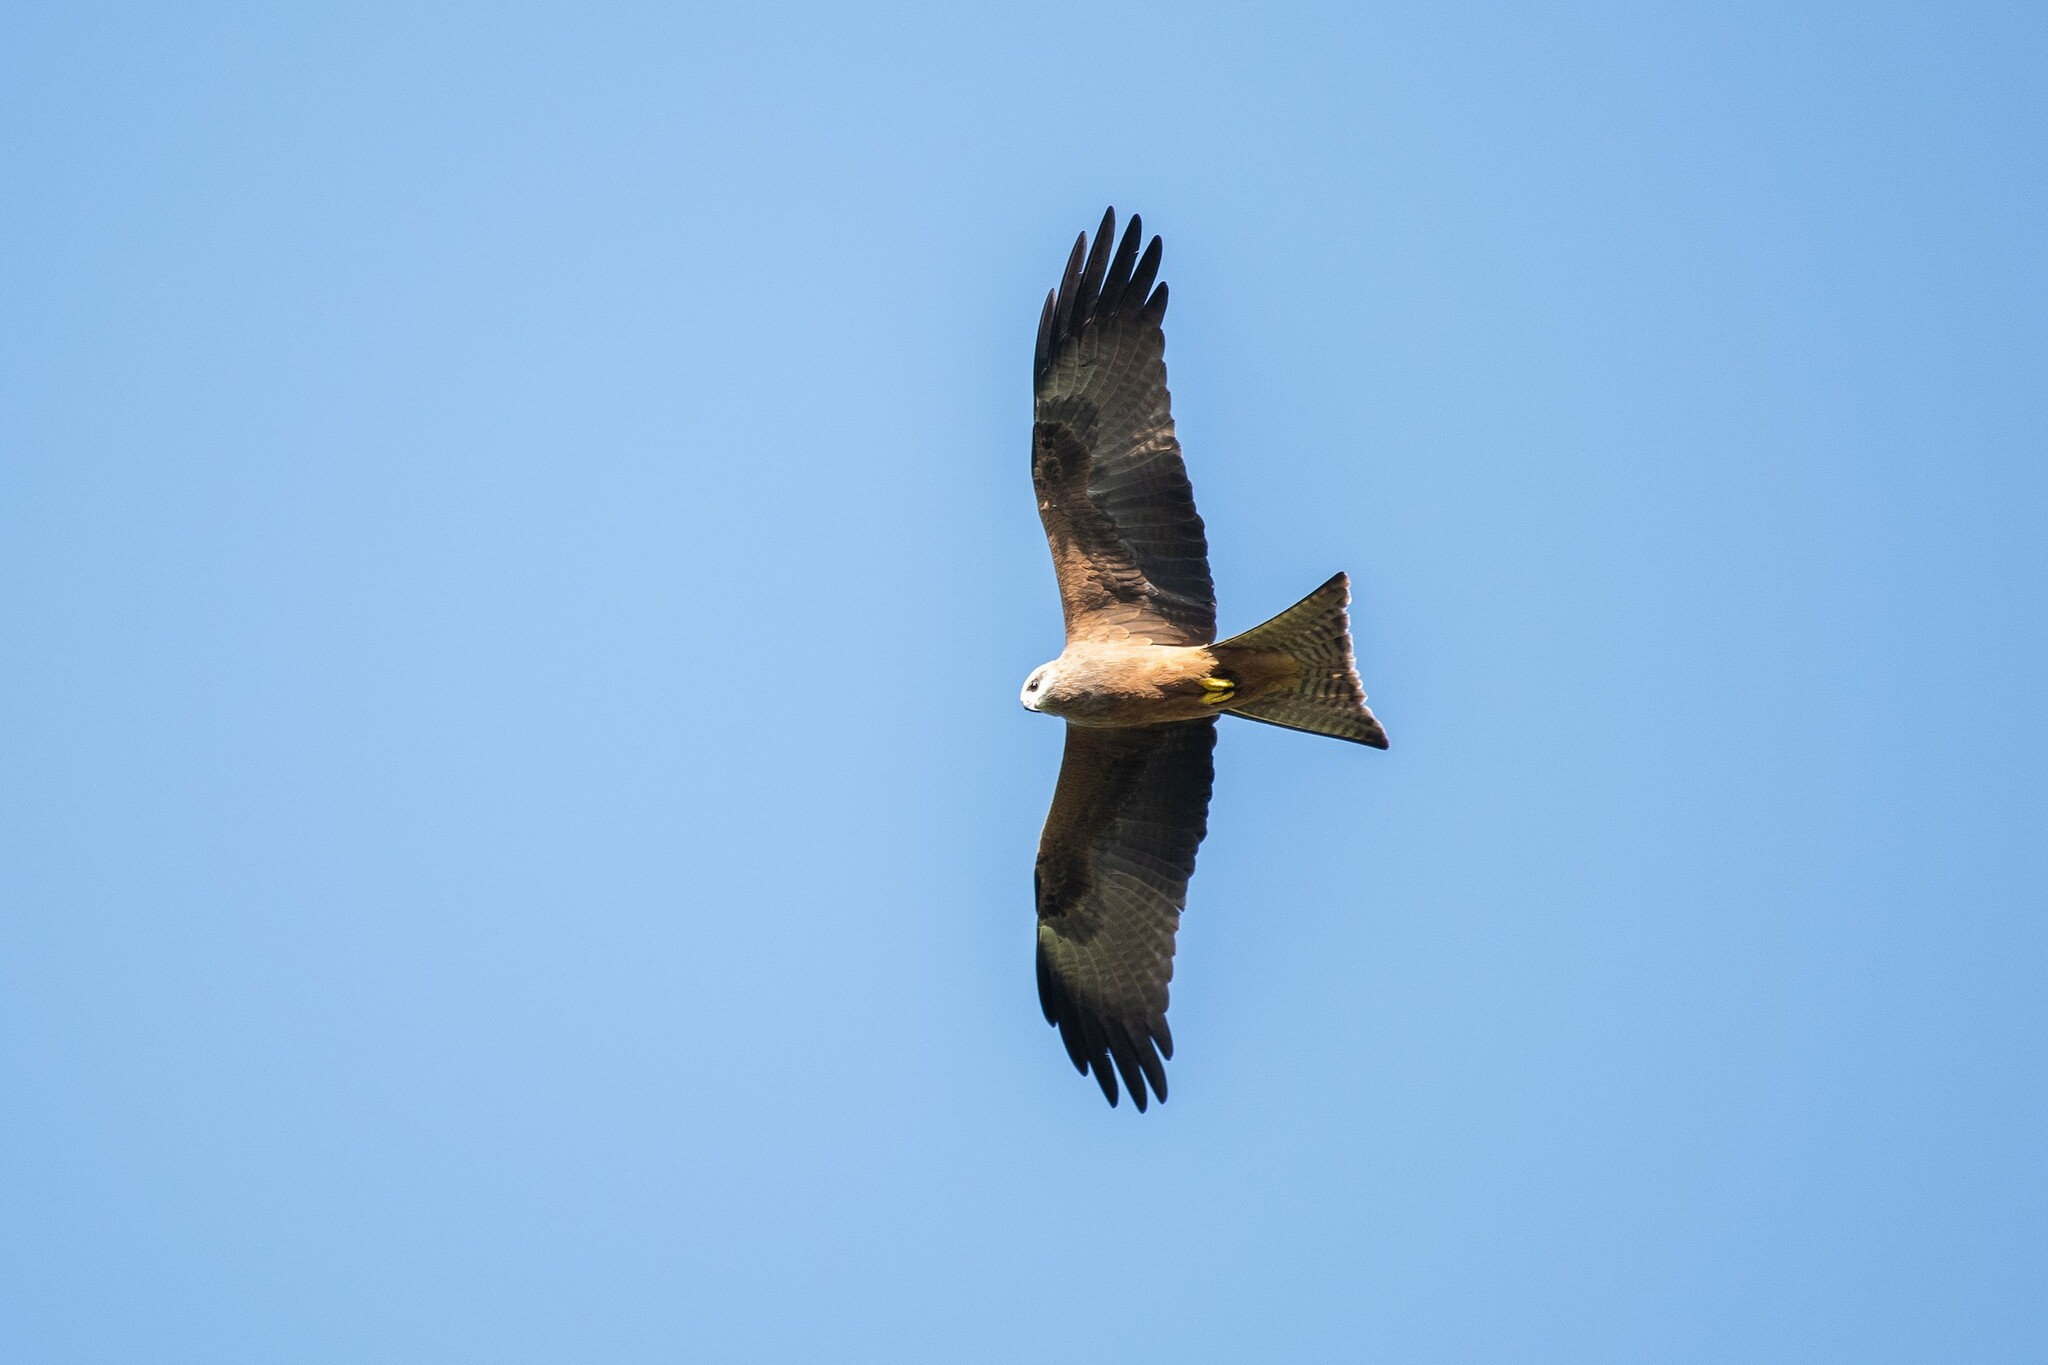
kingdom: Animalia
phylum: Chordata
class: Aves
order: Accipitriformes
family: Accipitridae
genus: Milvus
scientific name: Milvus migrans
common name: Black kite
